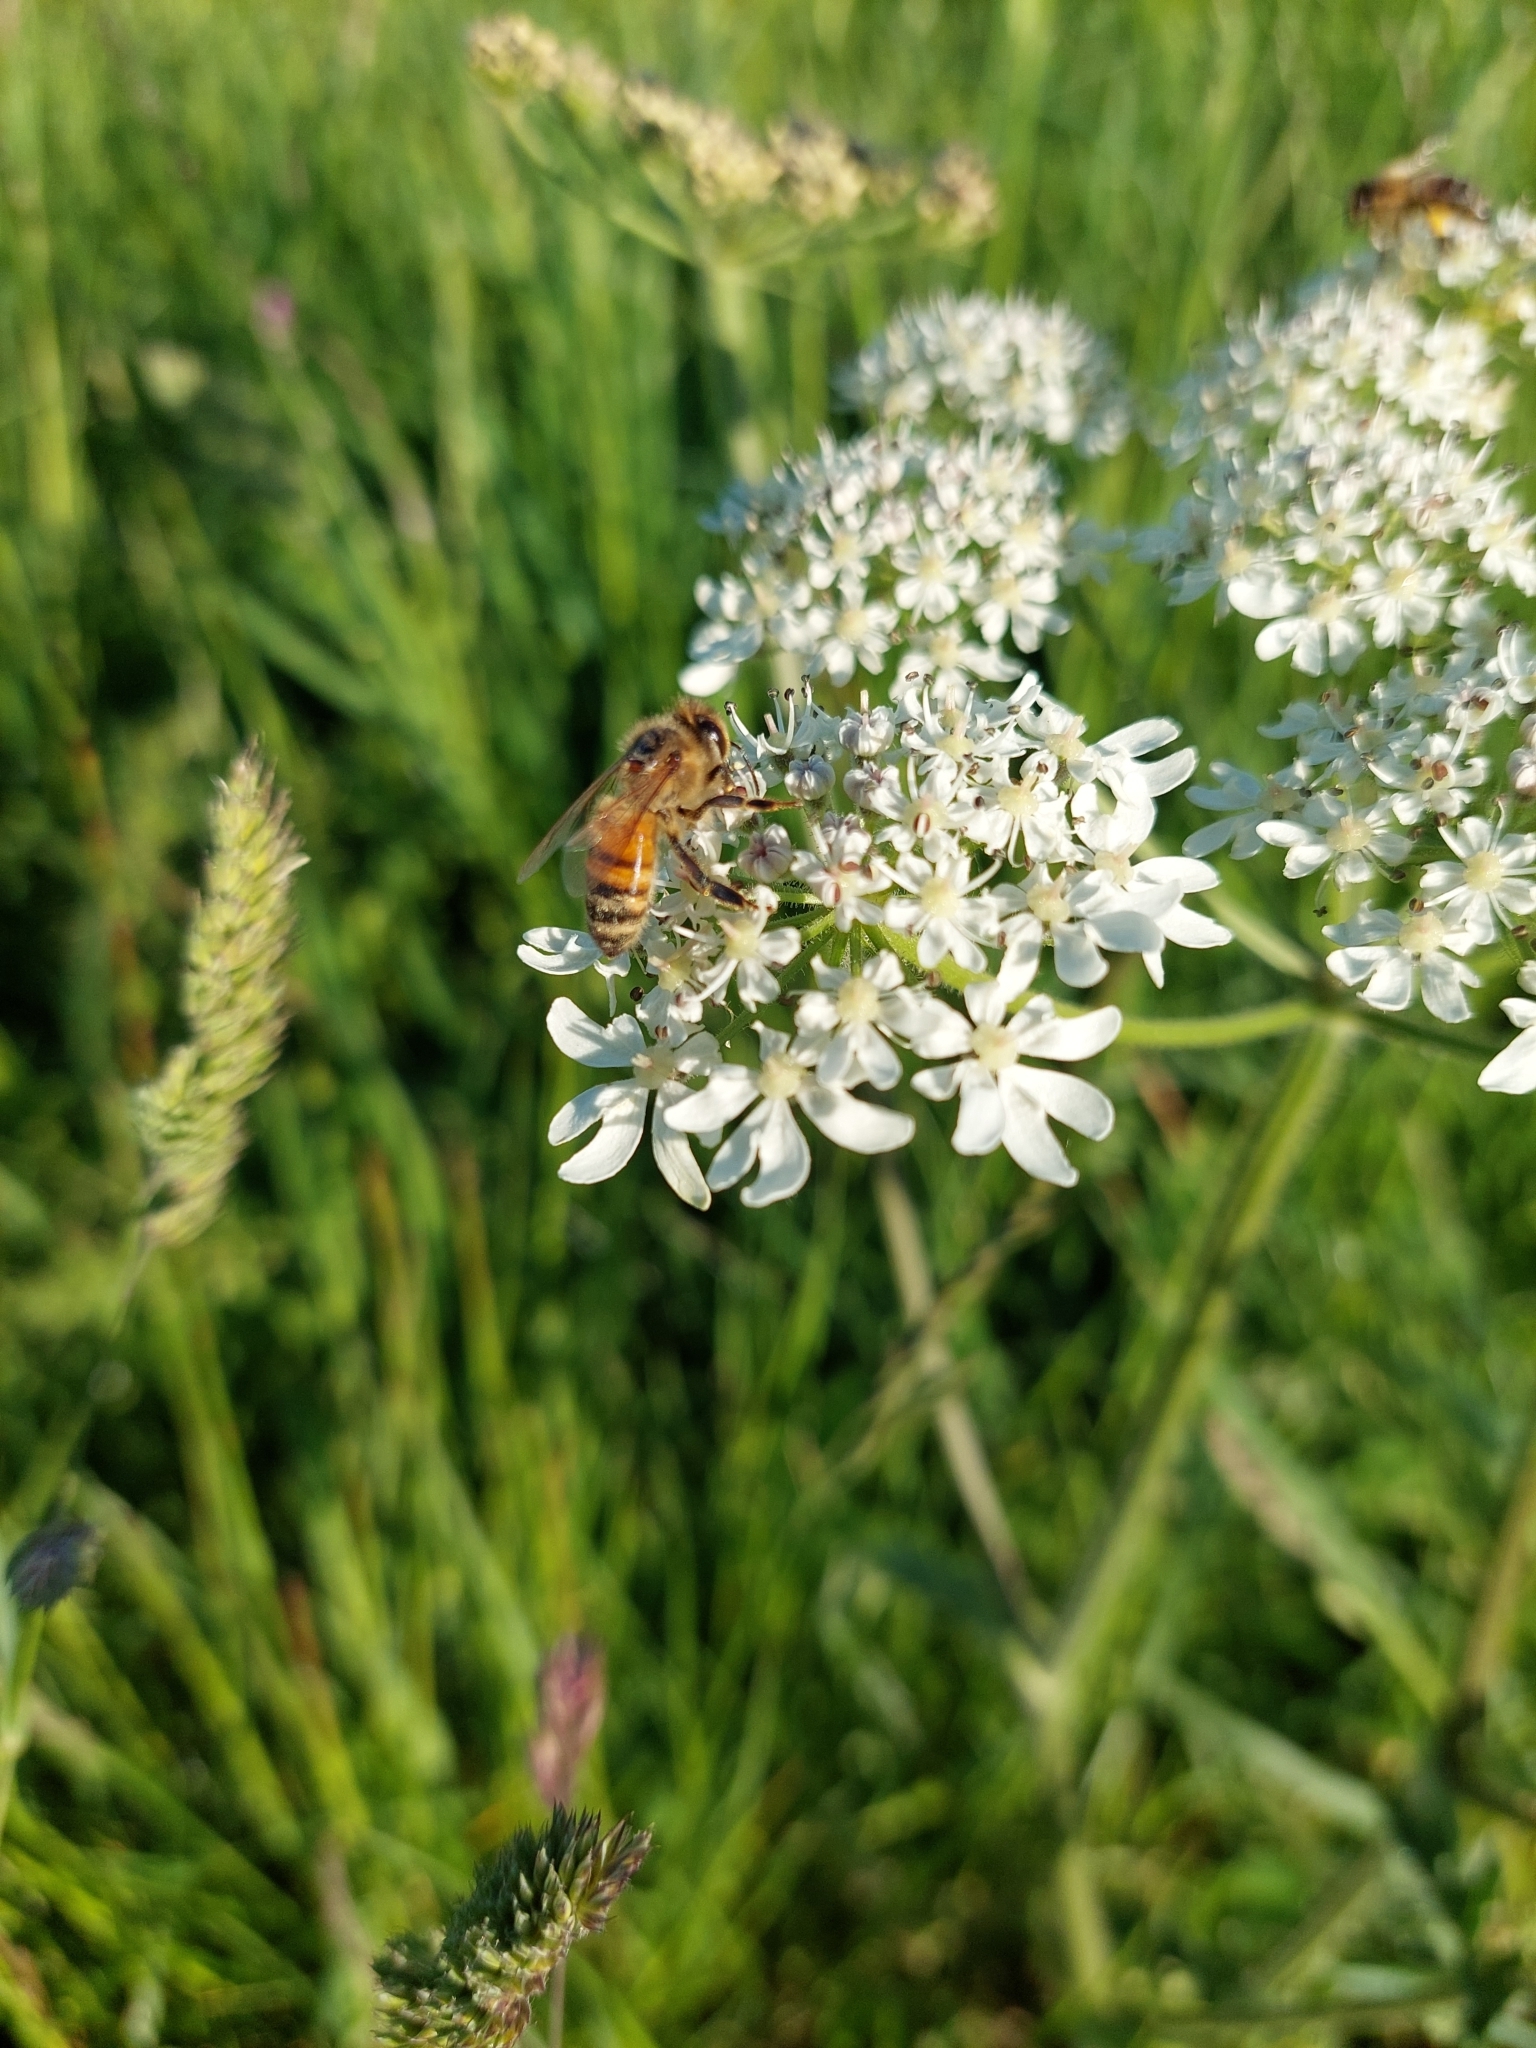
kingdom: Animalia
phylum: Arthropoda
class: Insecta
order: Hymenoptera
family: Apidae
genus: Apis
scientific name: Apis mellifera
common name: Honey bee
